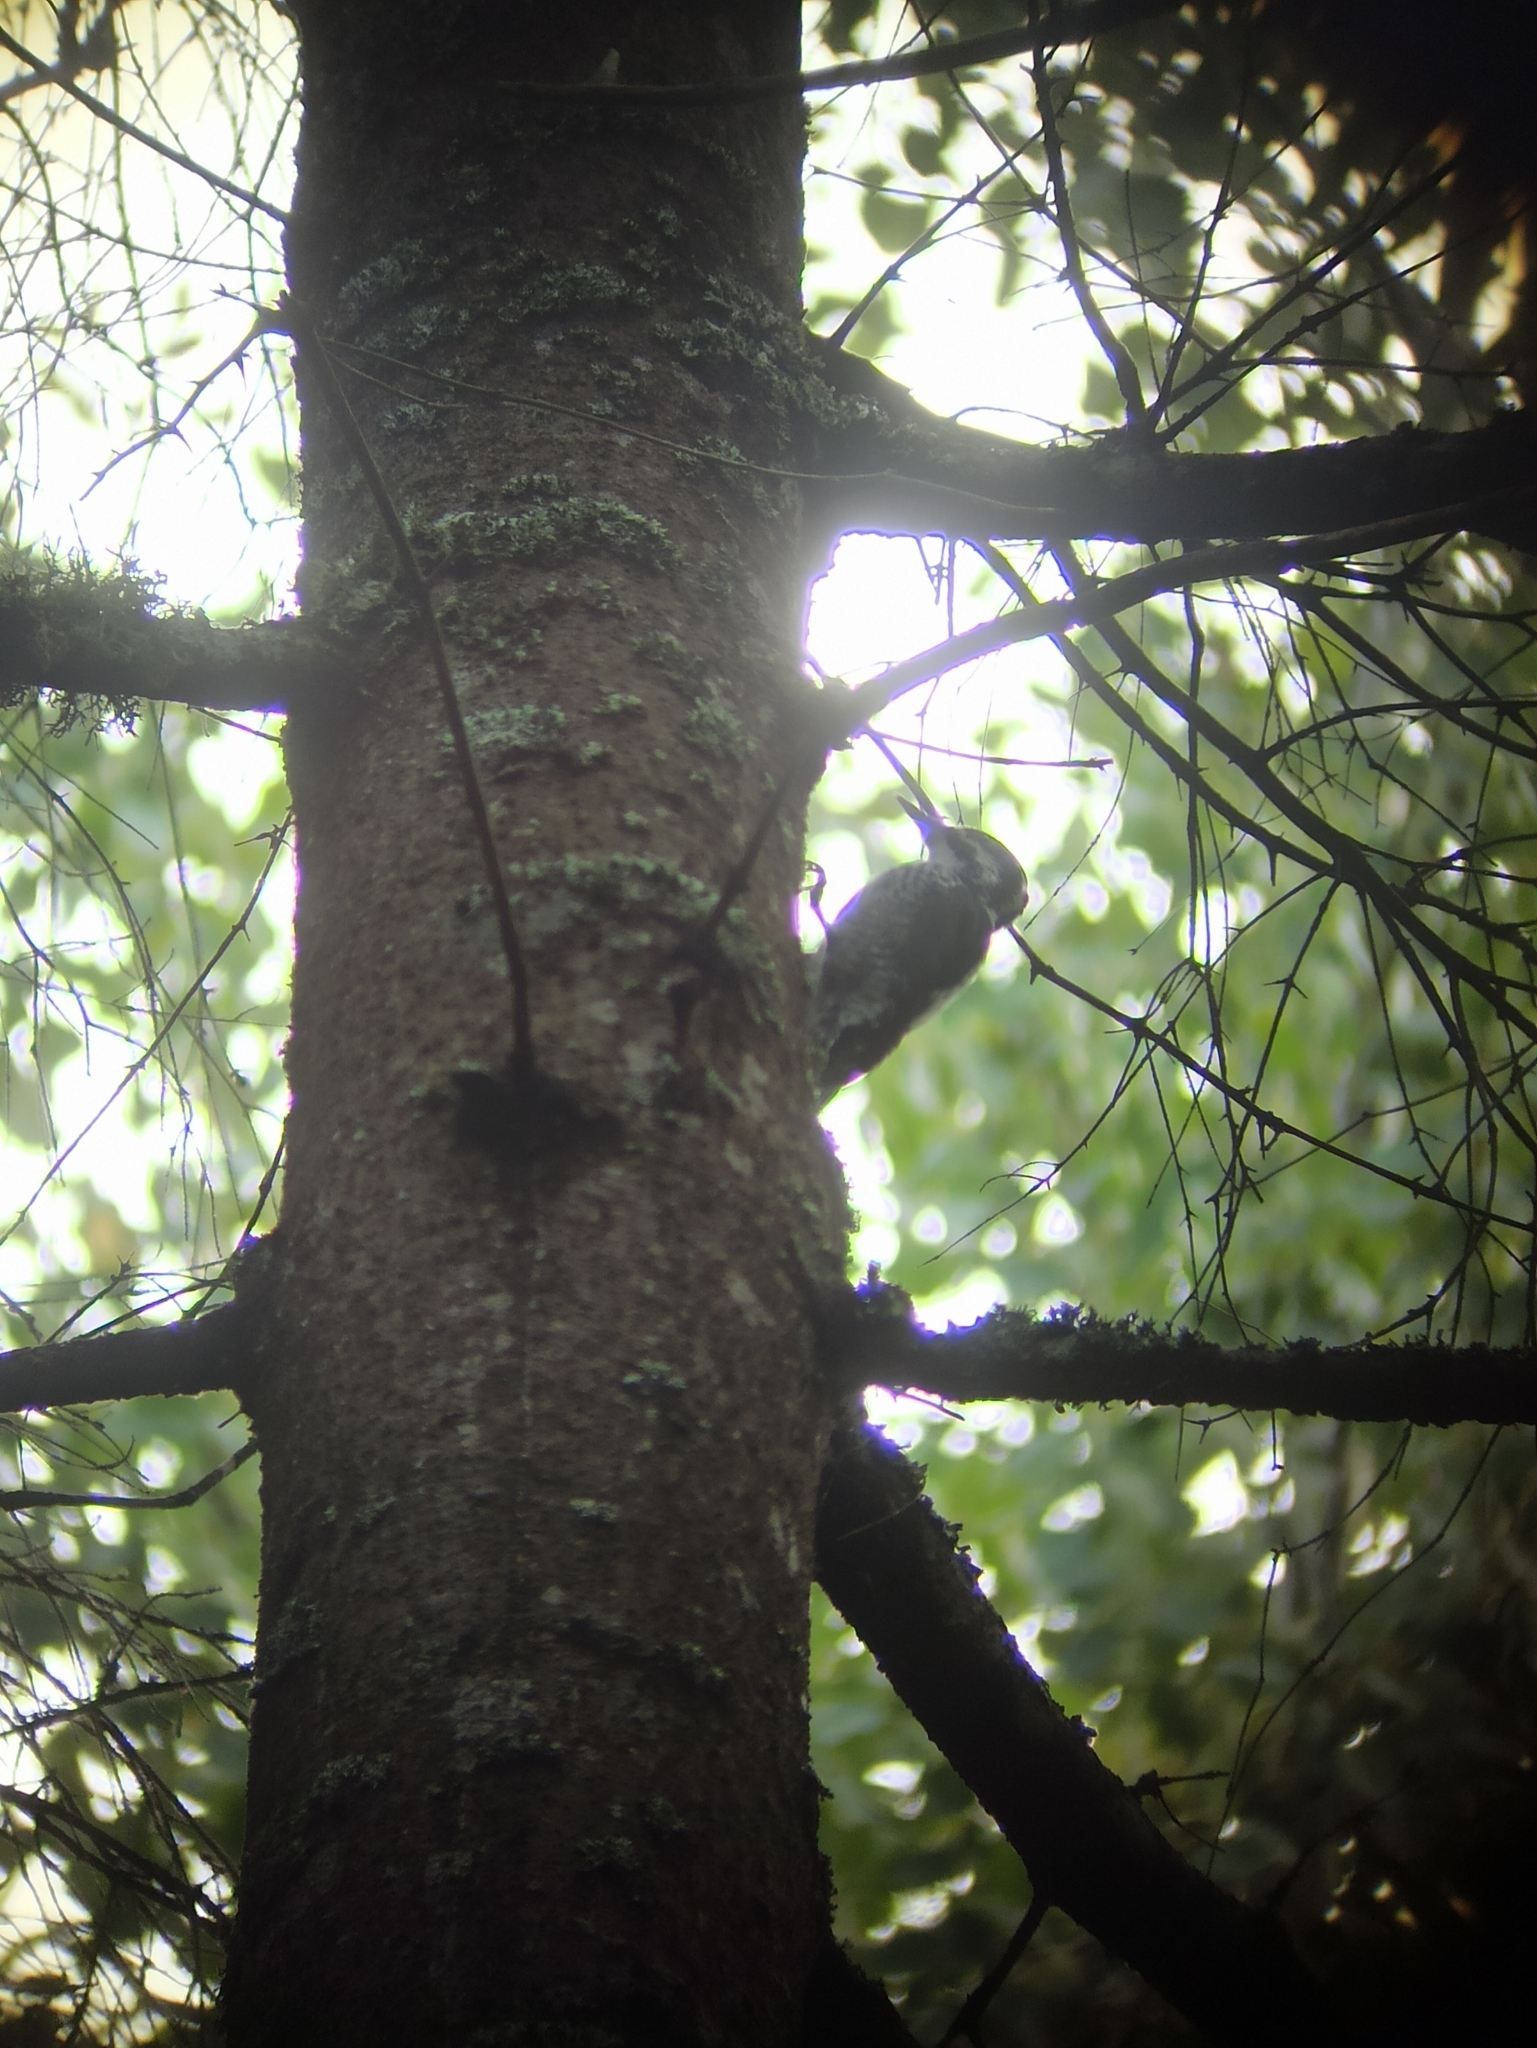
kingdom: Animalia
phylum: Chordata
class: Aves
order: Piciformes
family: Picidae
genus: Picoides
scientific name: Picoides tridactylus
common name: Eurasian three-toed woodpecker
